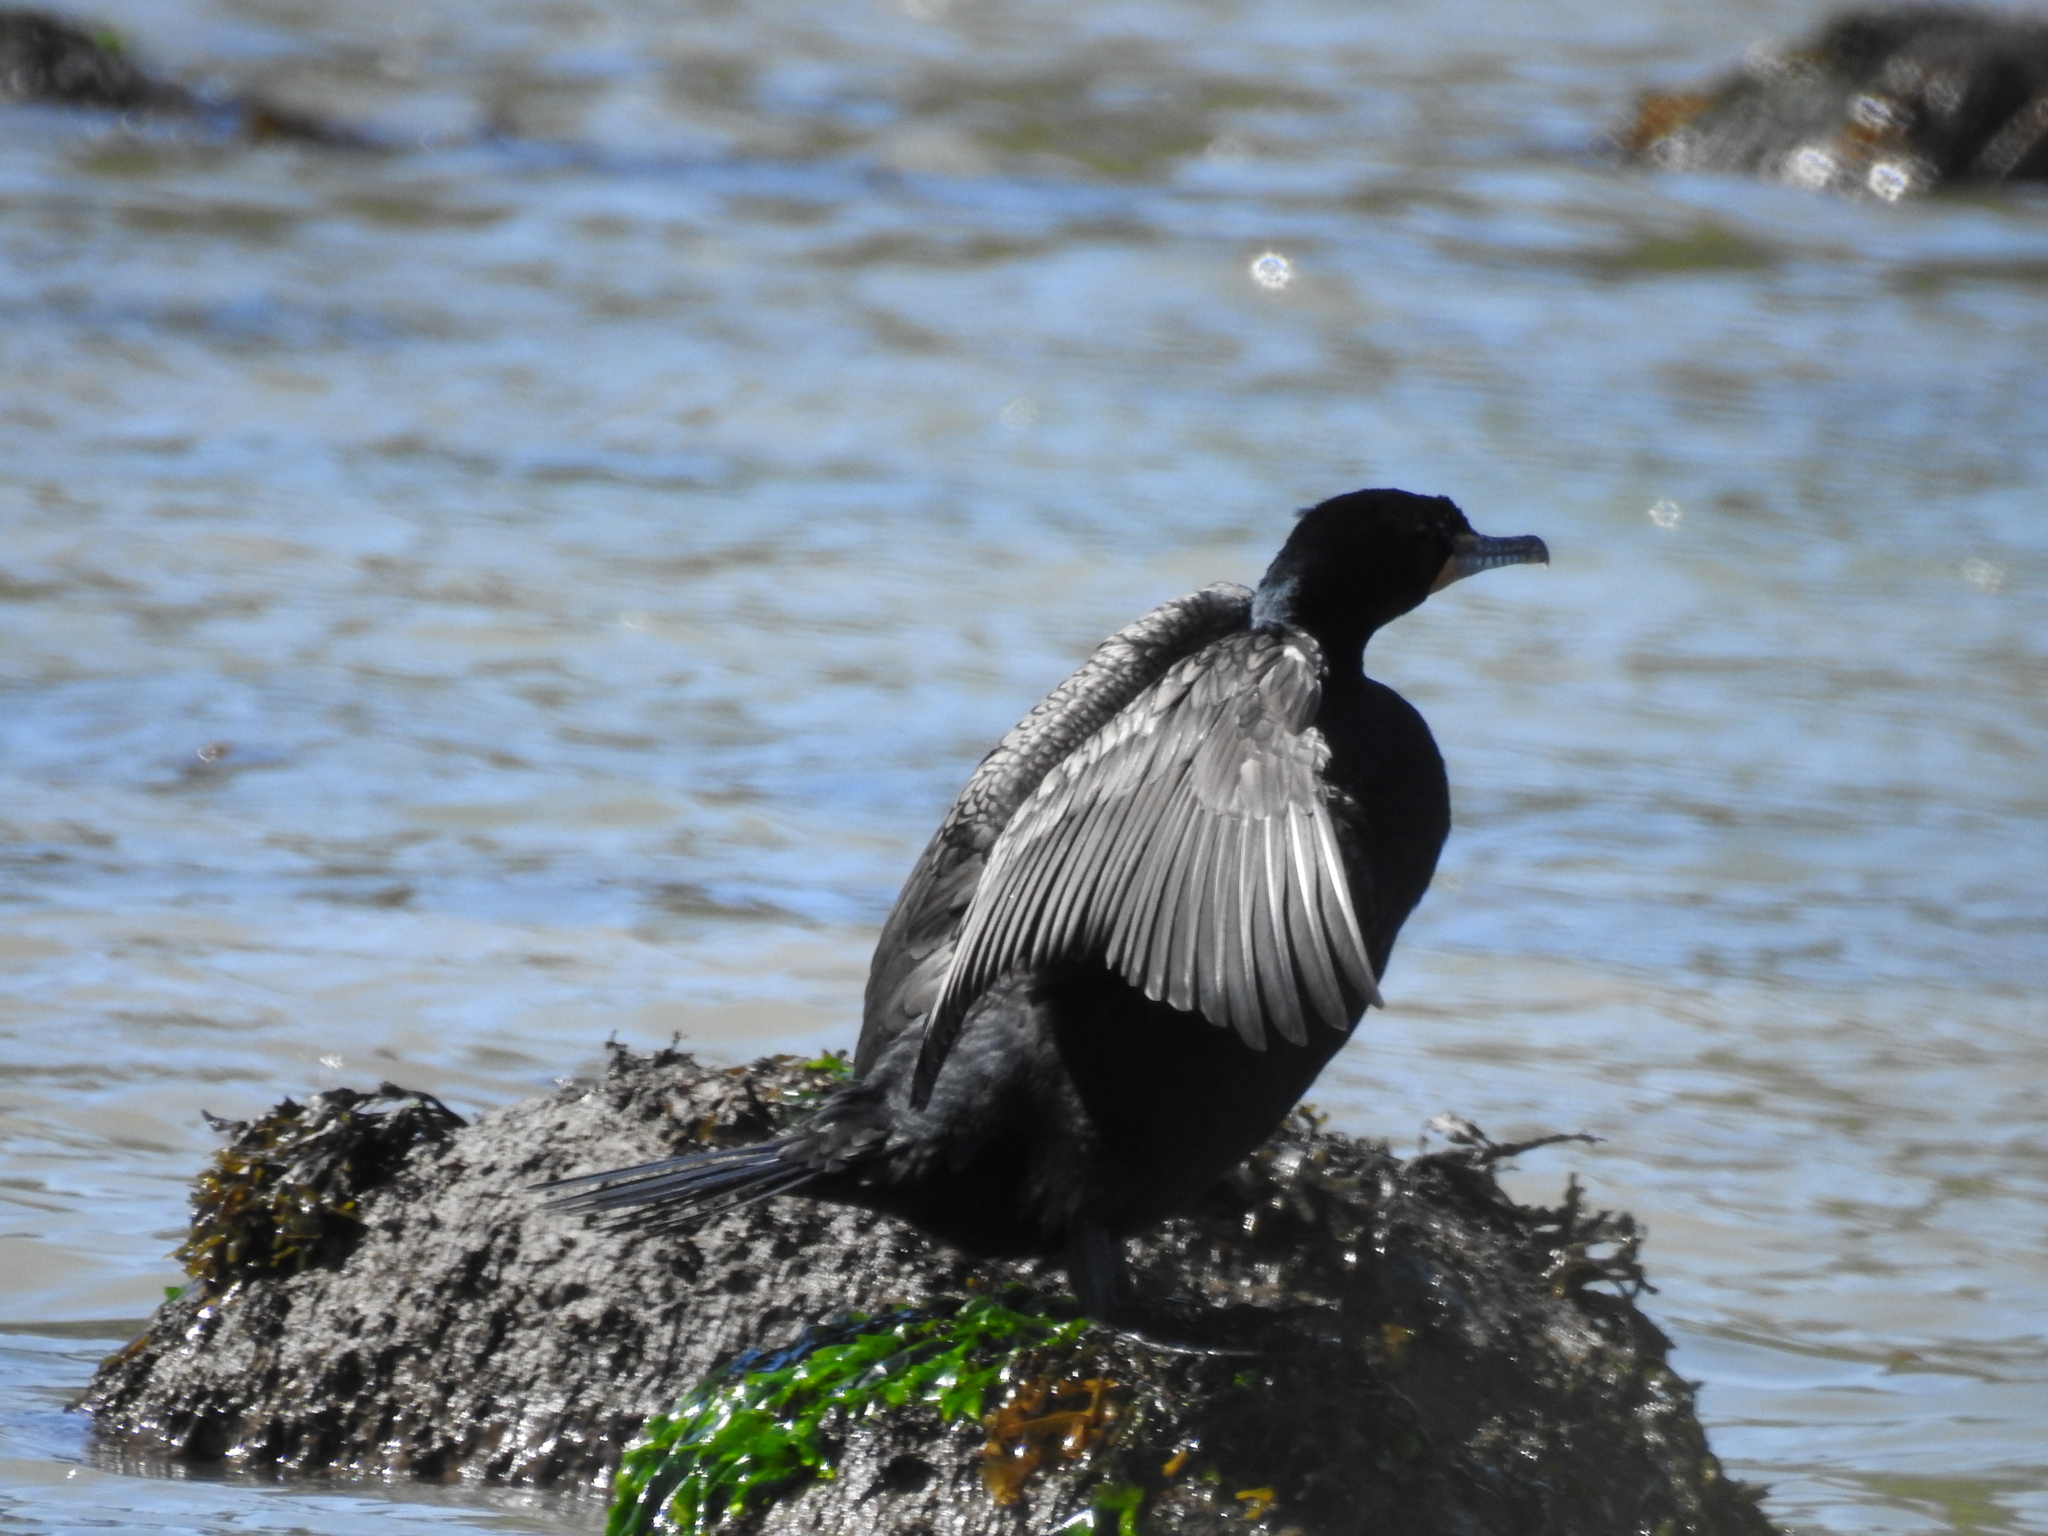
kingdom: Animalia
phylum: Chordata
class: Aves
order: Suliformes
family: Phalacrocoracidae
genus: Phalacrocorax
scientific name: Phalacrocorax auritus
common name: Double-crested cormorant
